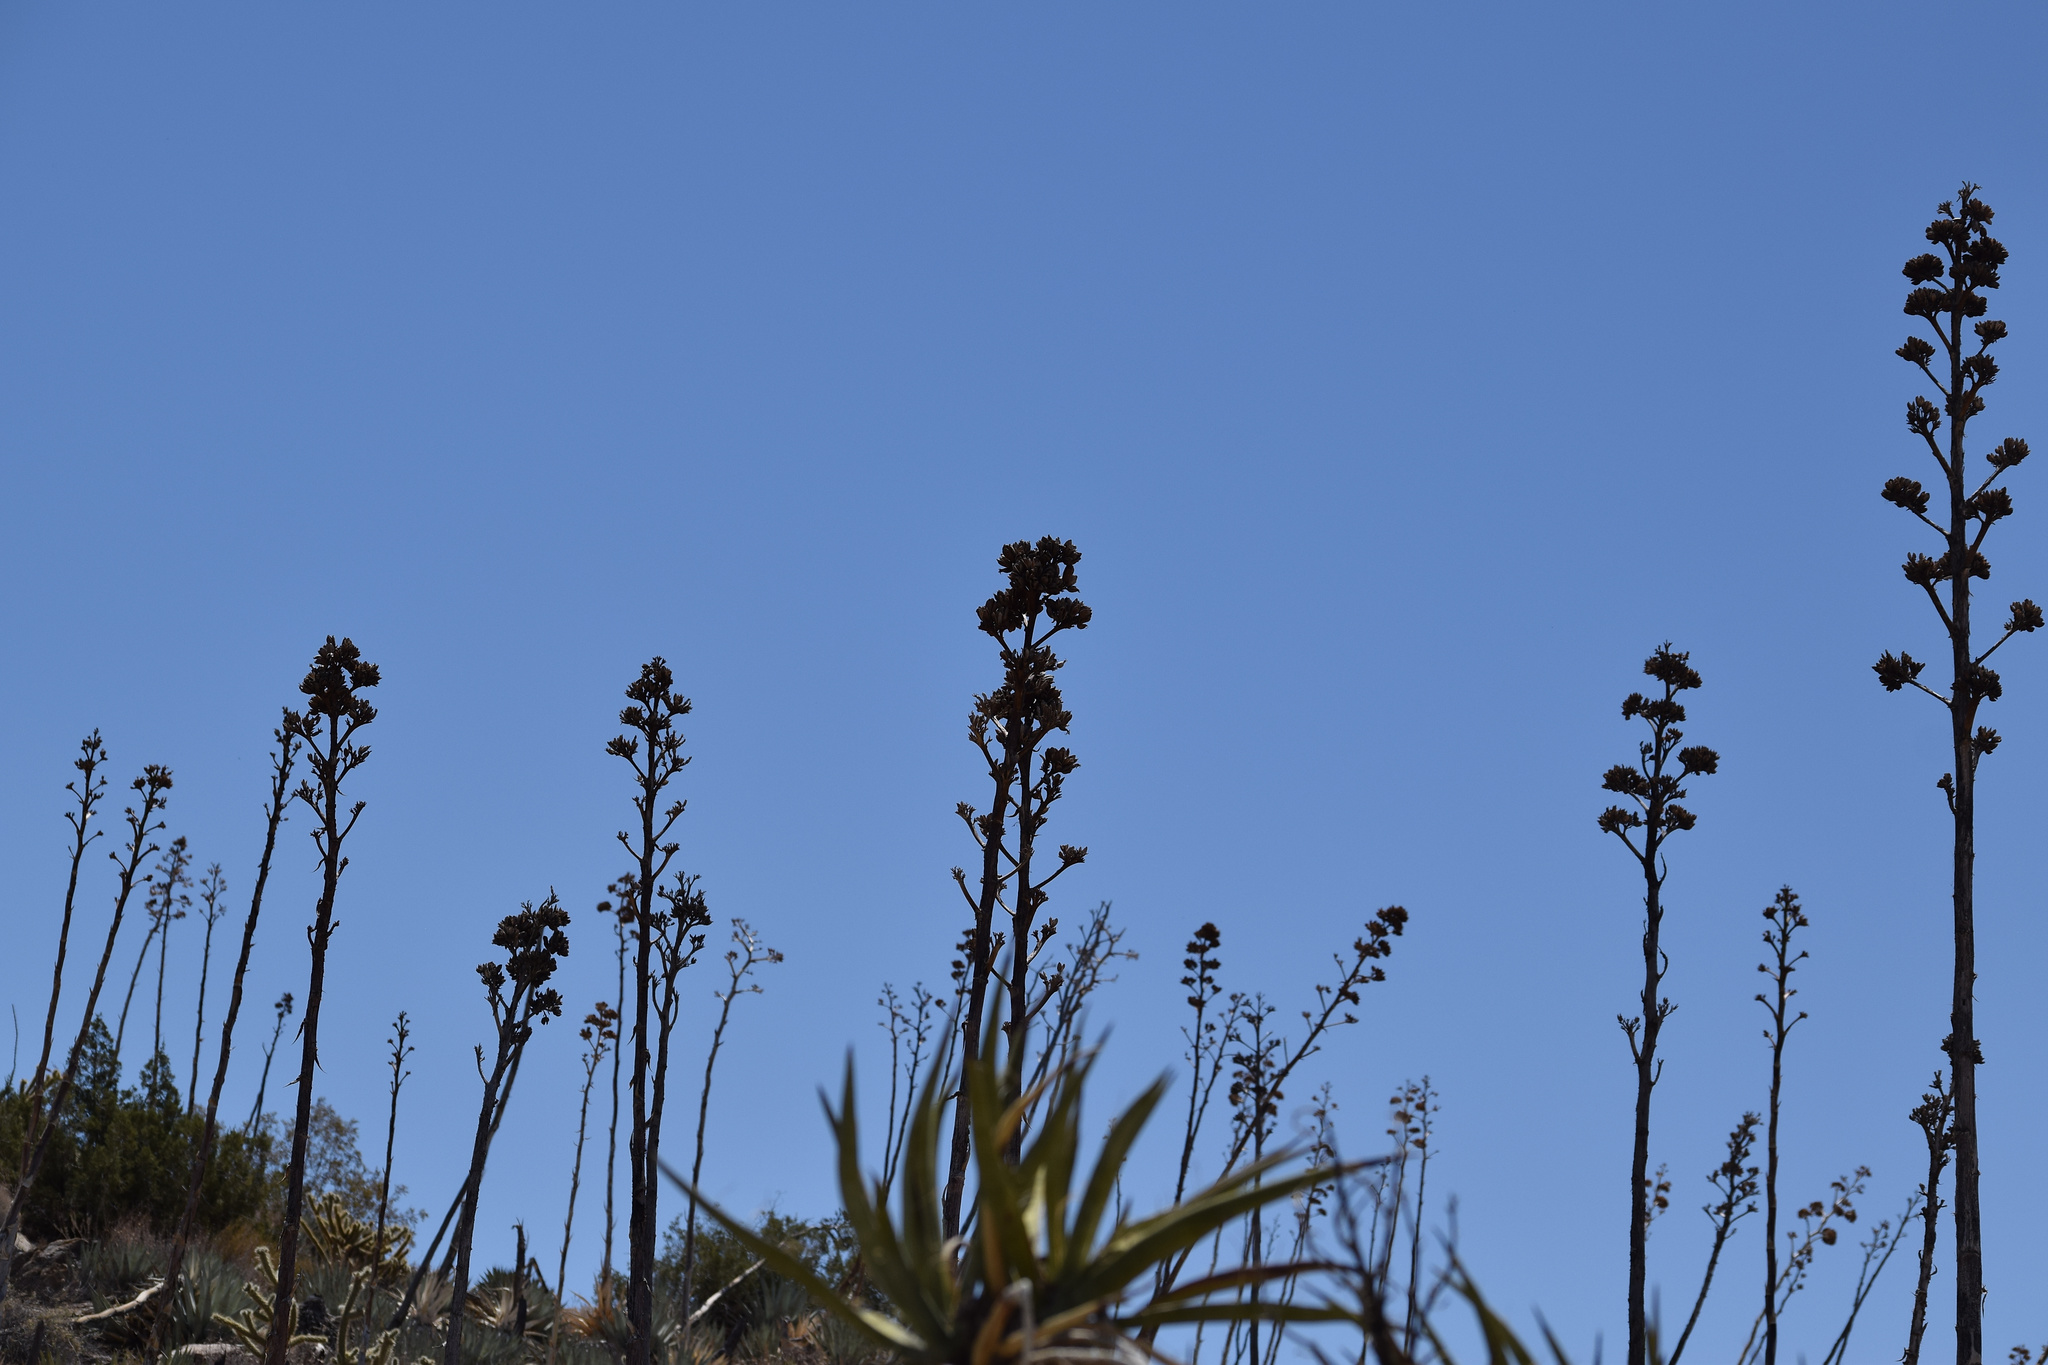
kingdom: Plantae
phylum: Tracheophyta
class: Liliopsida
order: Asparagales
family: Asparagaceae
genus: Agave
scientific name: Agave deserti
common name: Desert agave
